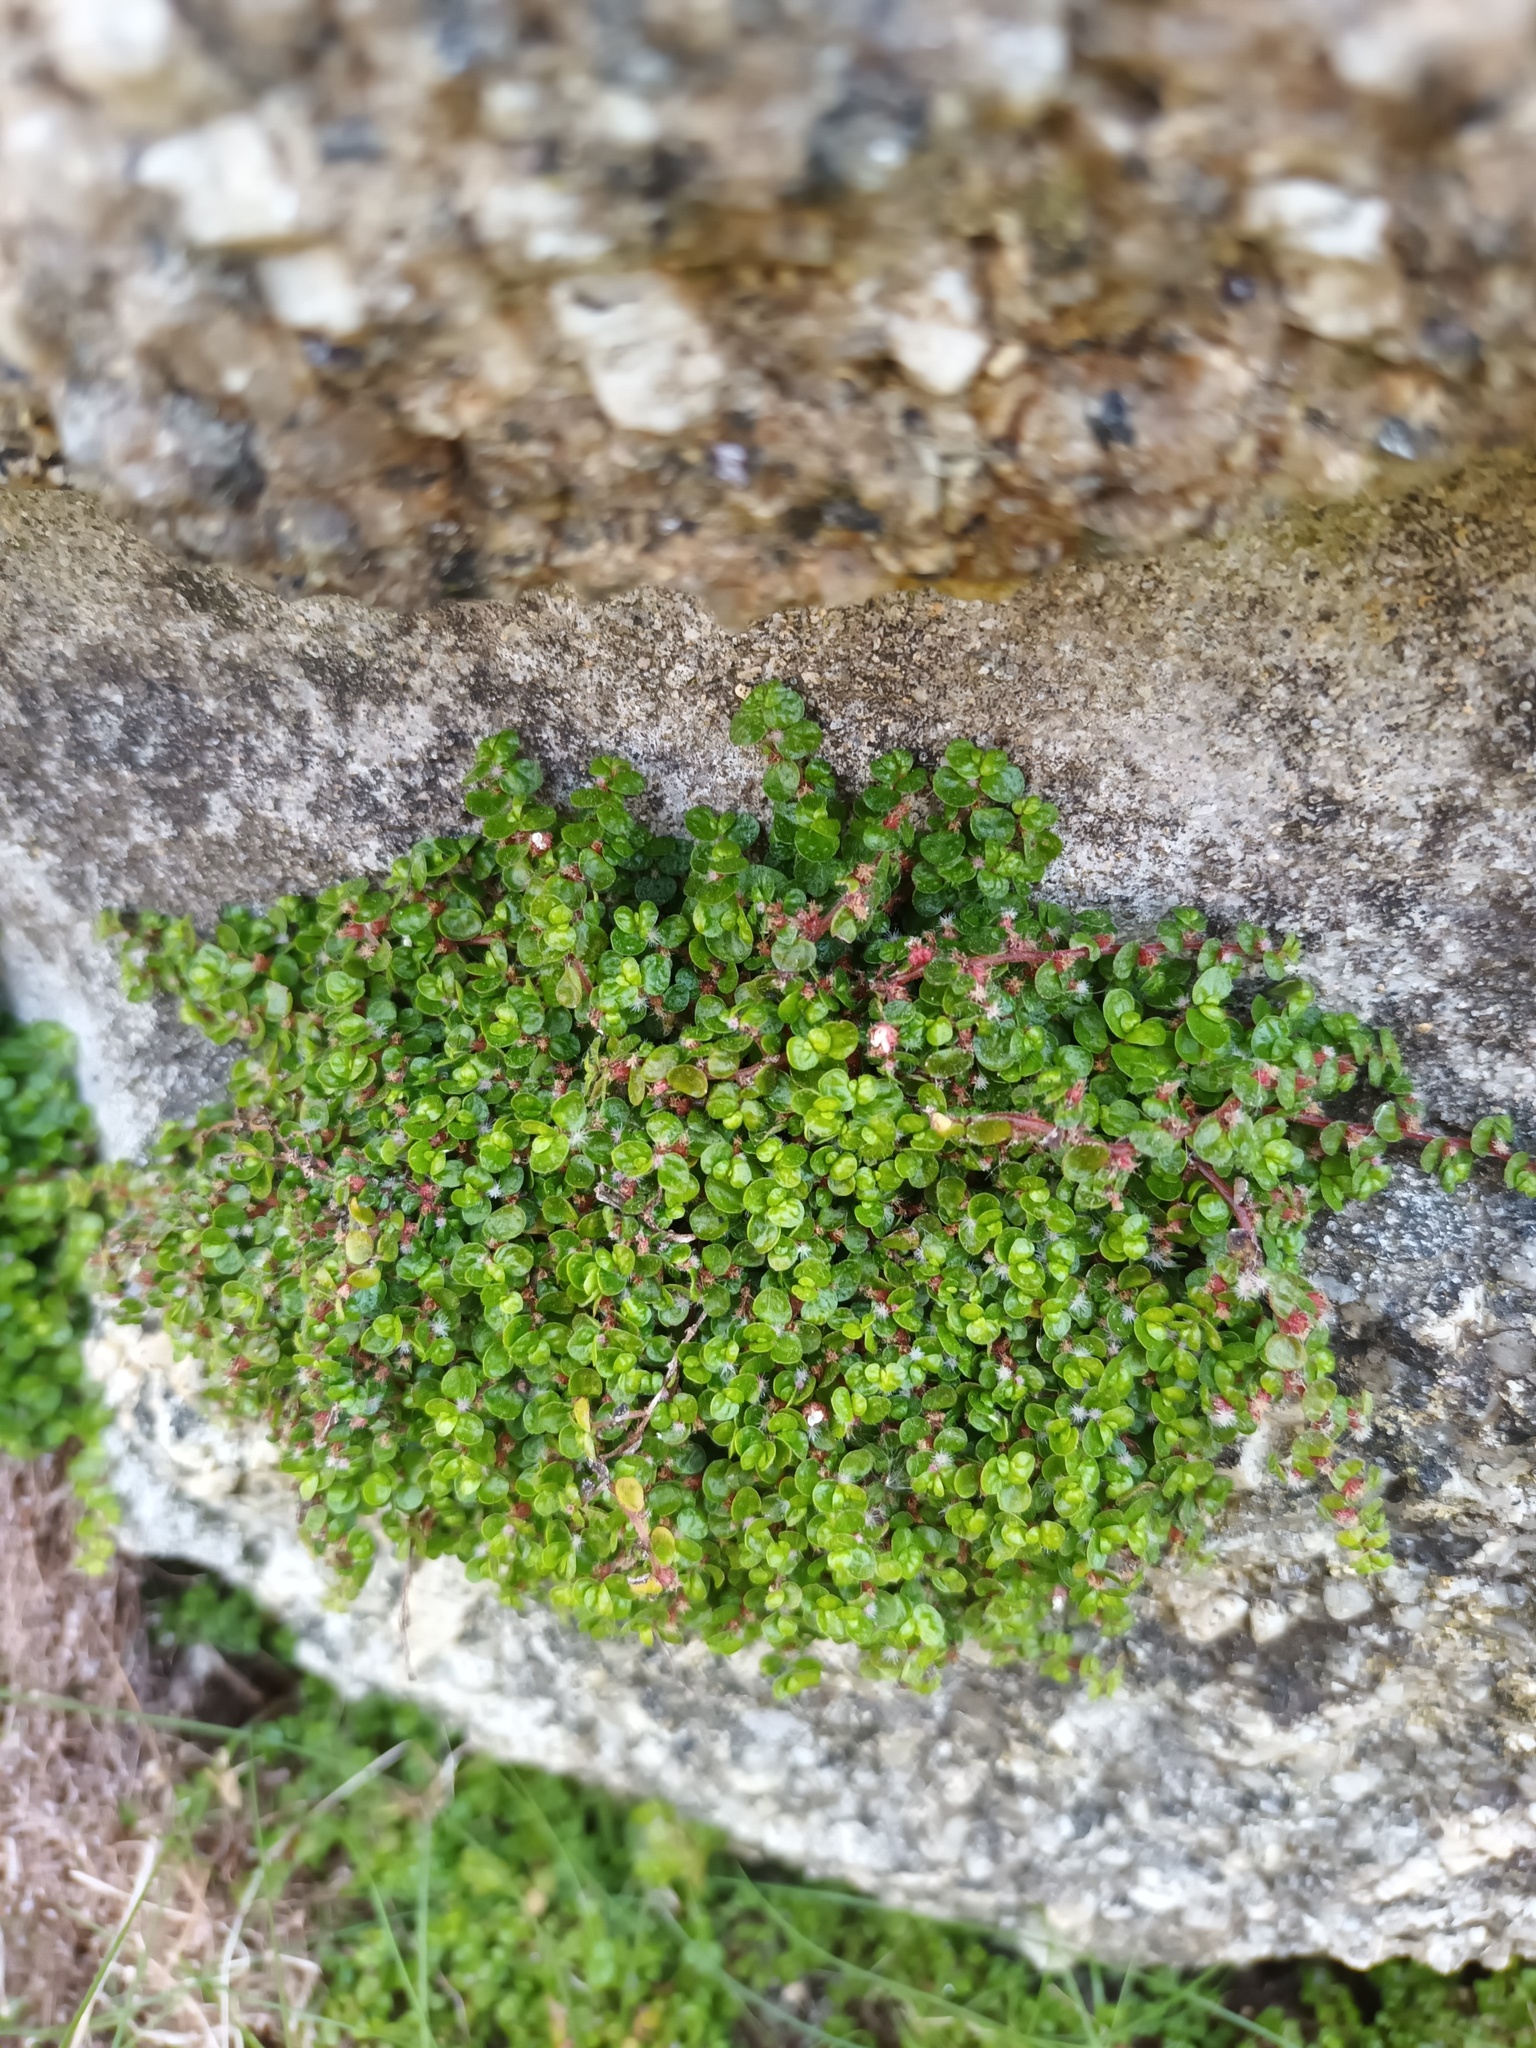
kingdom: Plantae
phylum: Tracheophyta
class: Magnoliopsida
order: Rosales
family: Urticaceae
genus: Soleirolia
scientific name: Soleirolia soleirolii
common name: Mind-your-own-business
